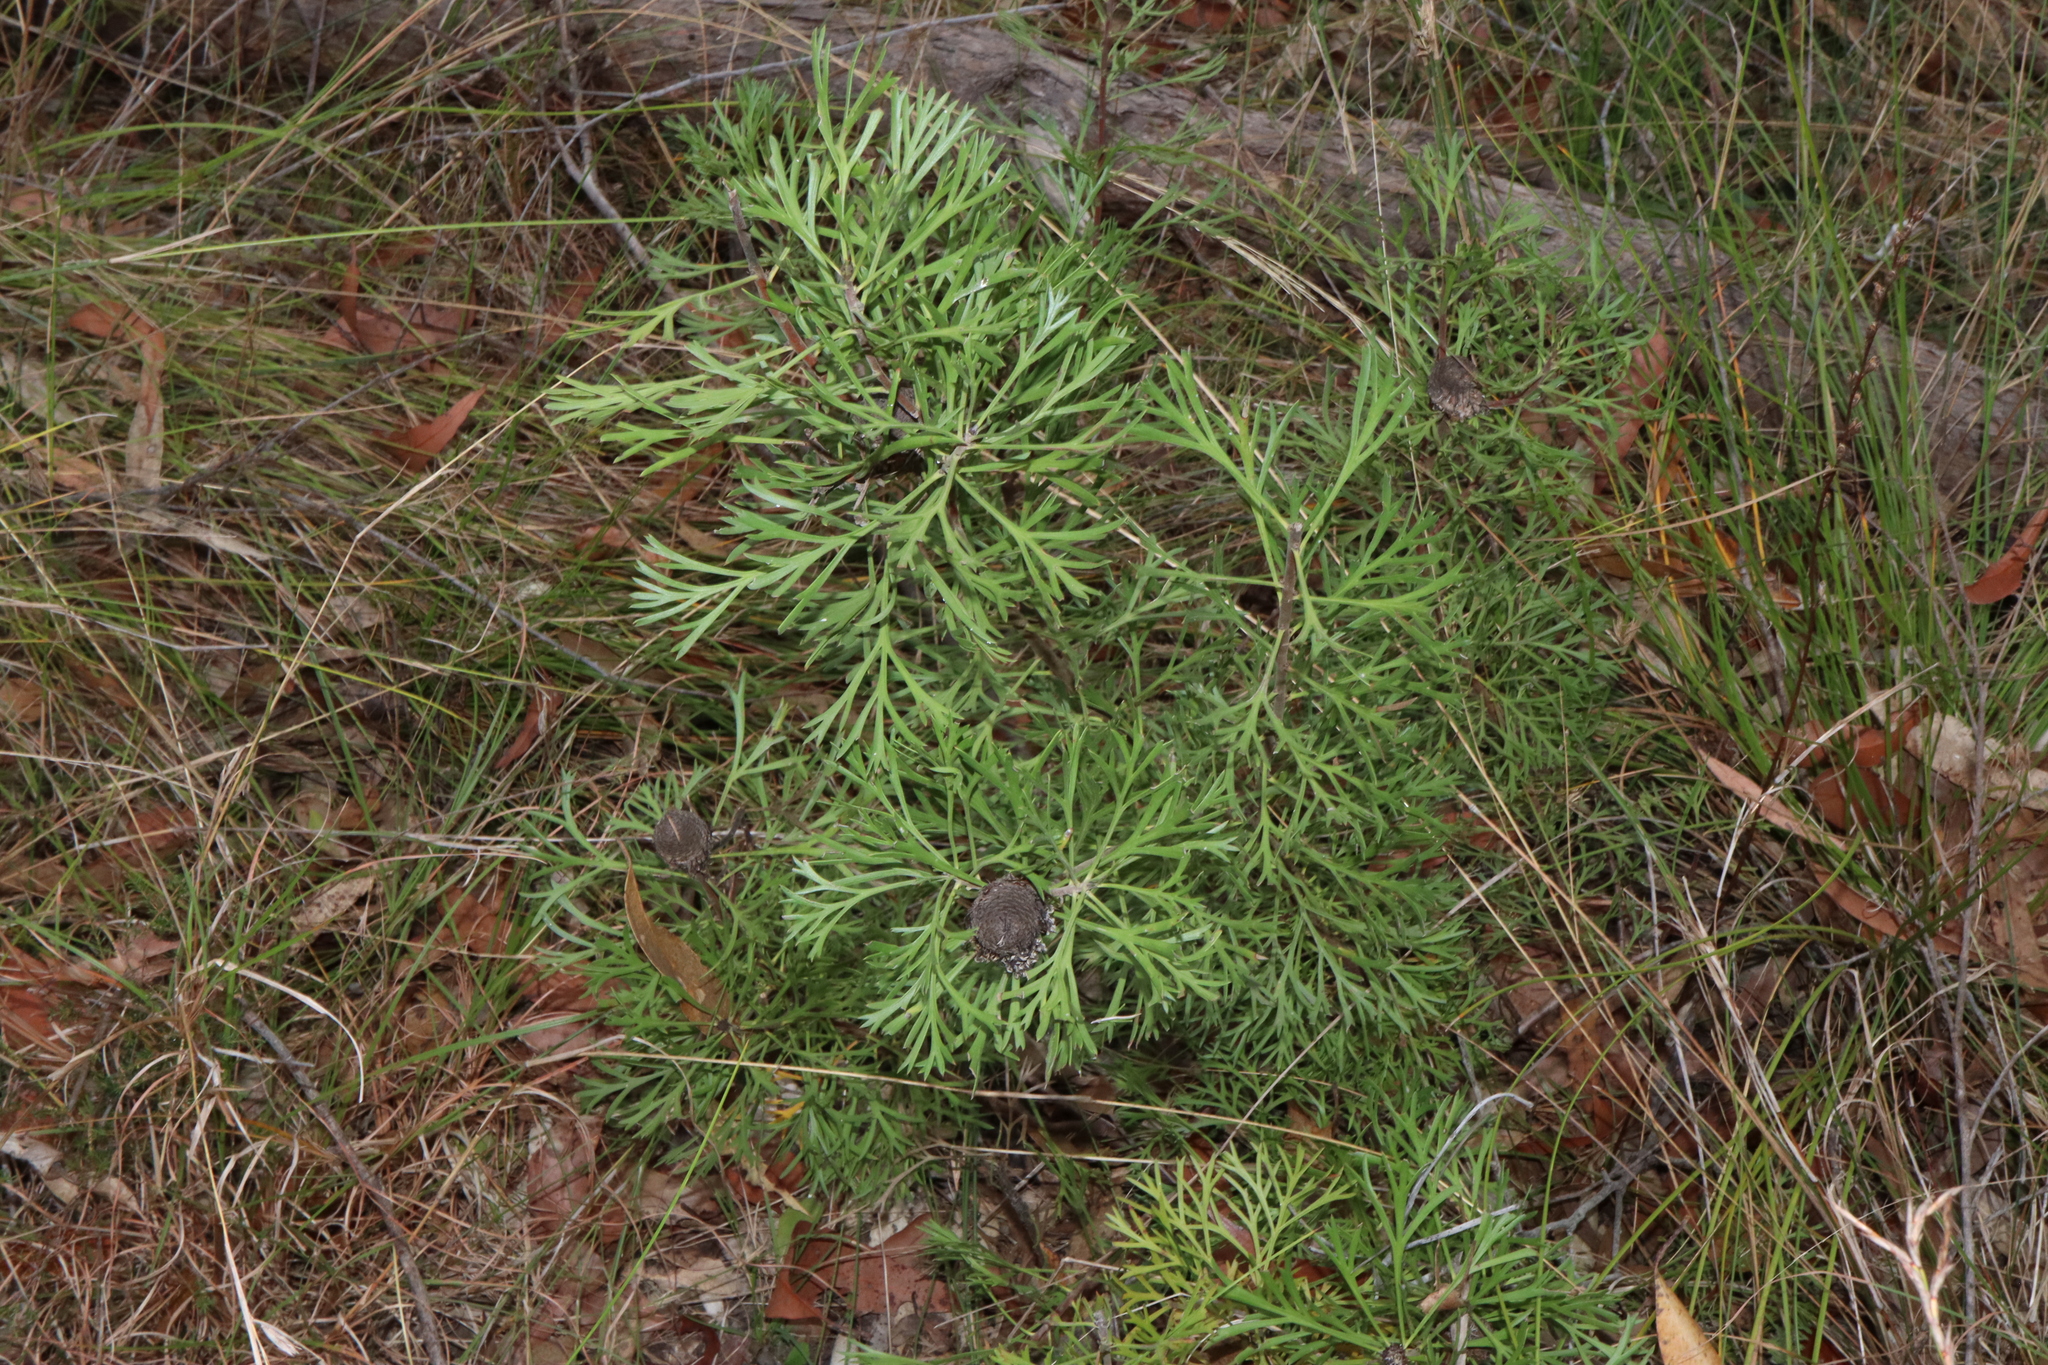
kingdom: Plantae
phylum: Tracheophyta
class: Magnoliopsida
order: Proteales
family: Proteaceae
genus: Isopogon
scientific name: Isopogon anemonifolius
